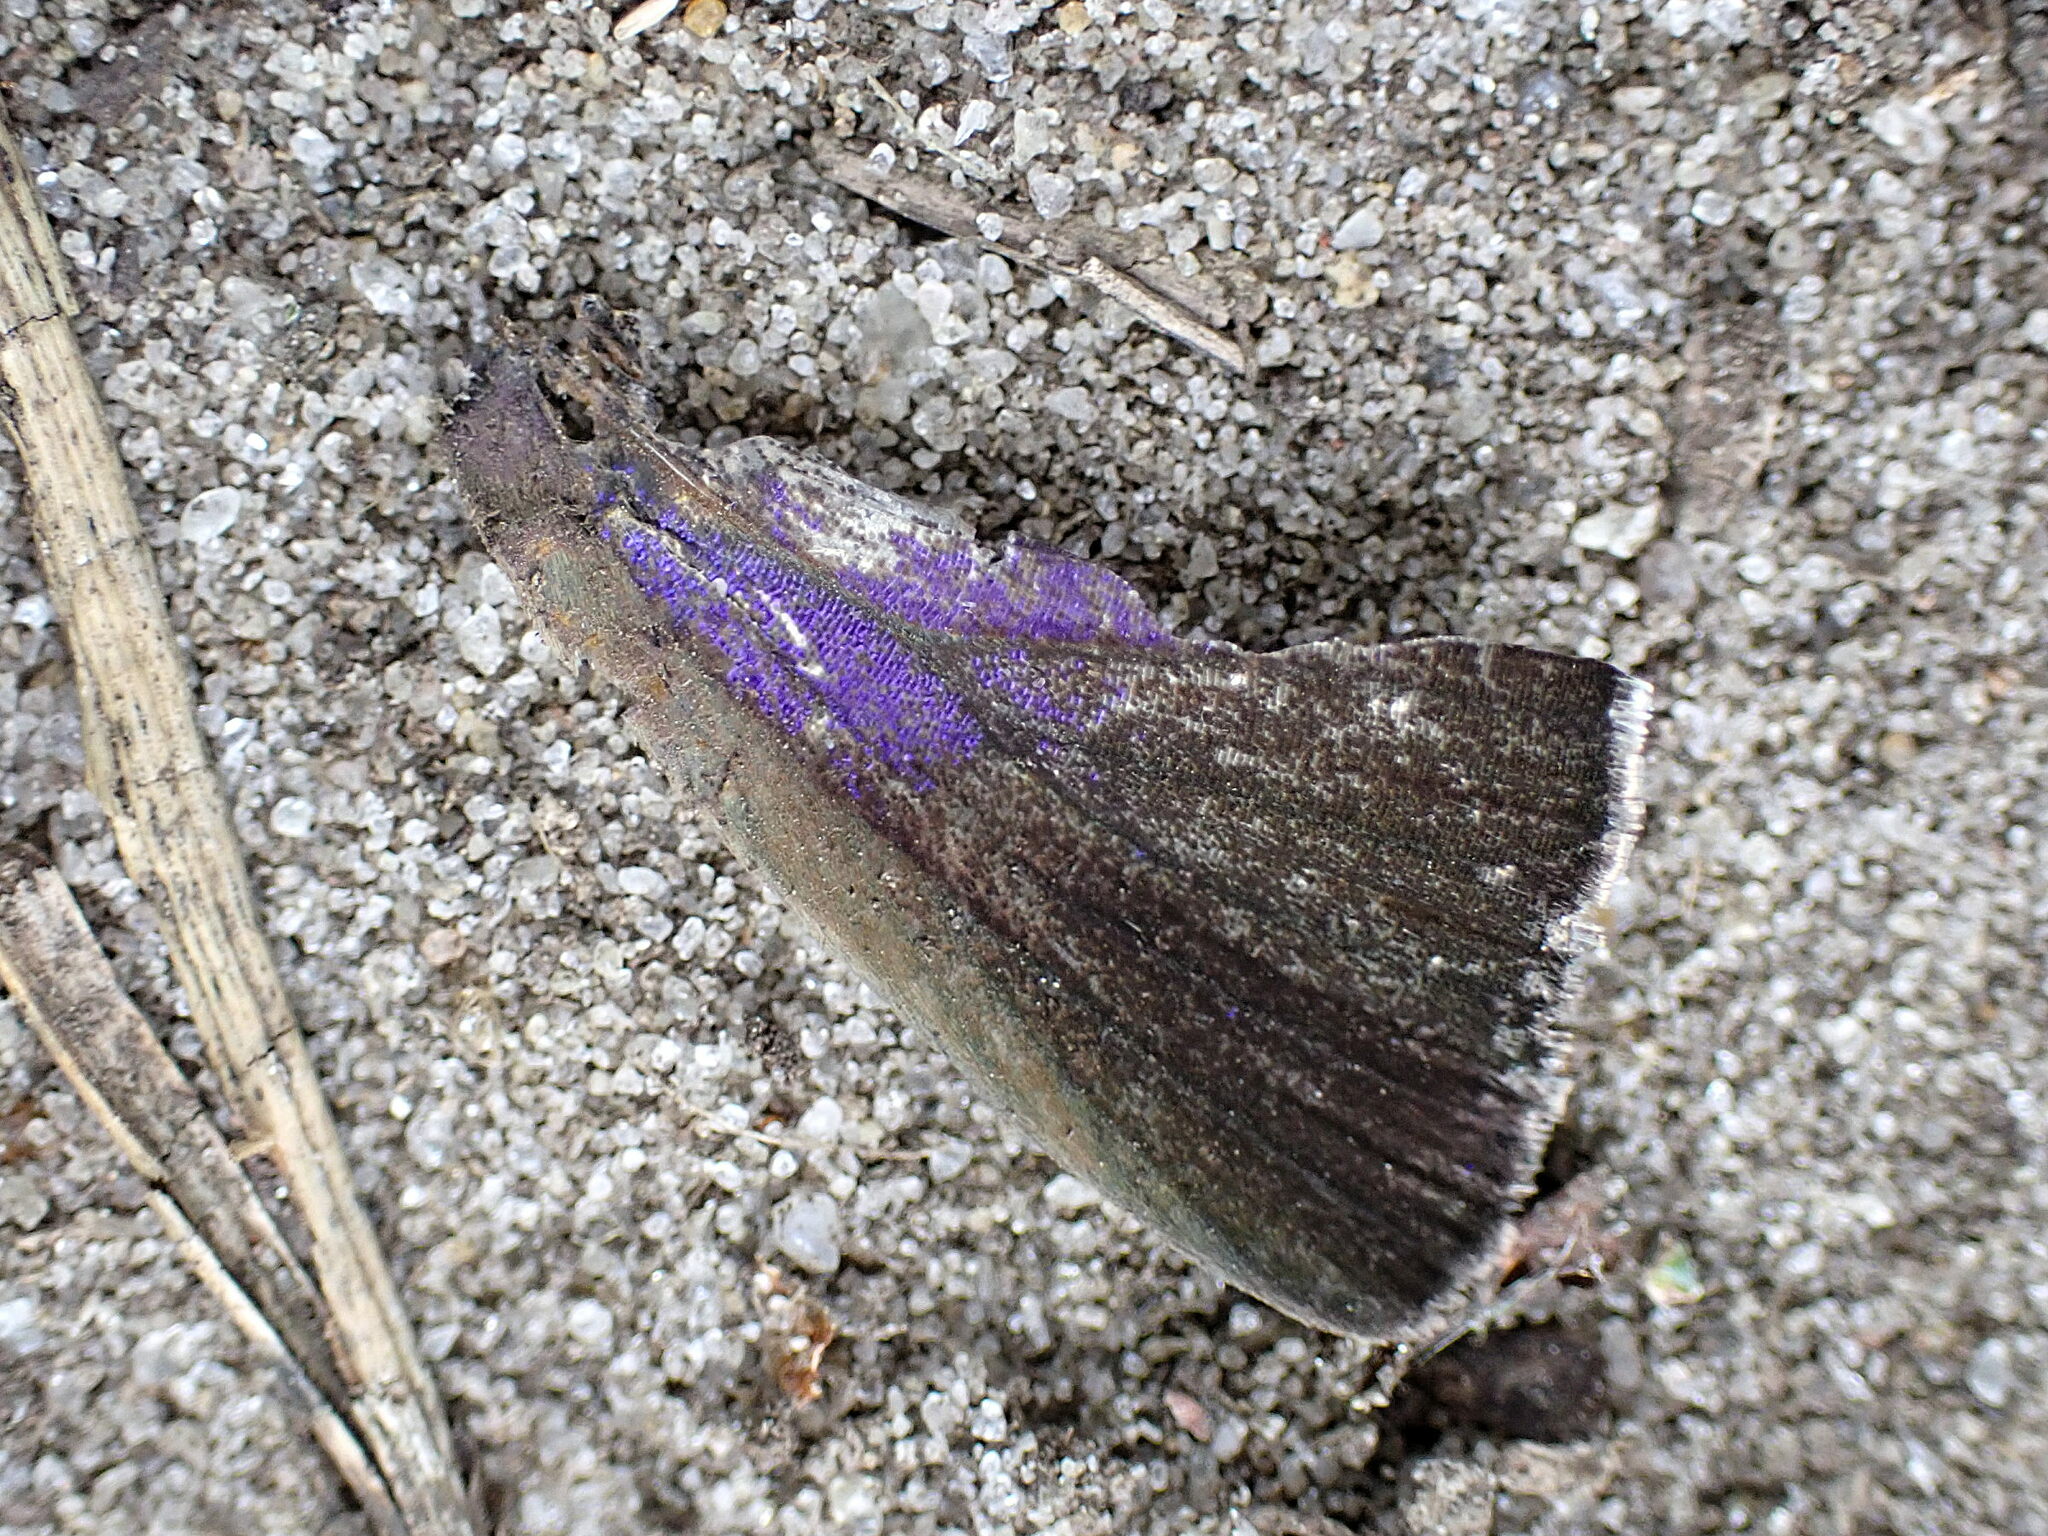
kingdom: Animalia
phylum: Arthropoda
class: Insecta
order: Lepidoptera
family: Lycaenidae
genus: Quercusia
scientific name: Quercusia quercus
